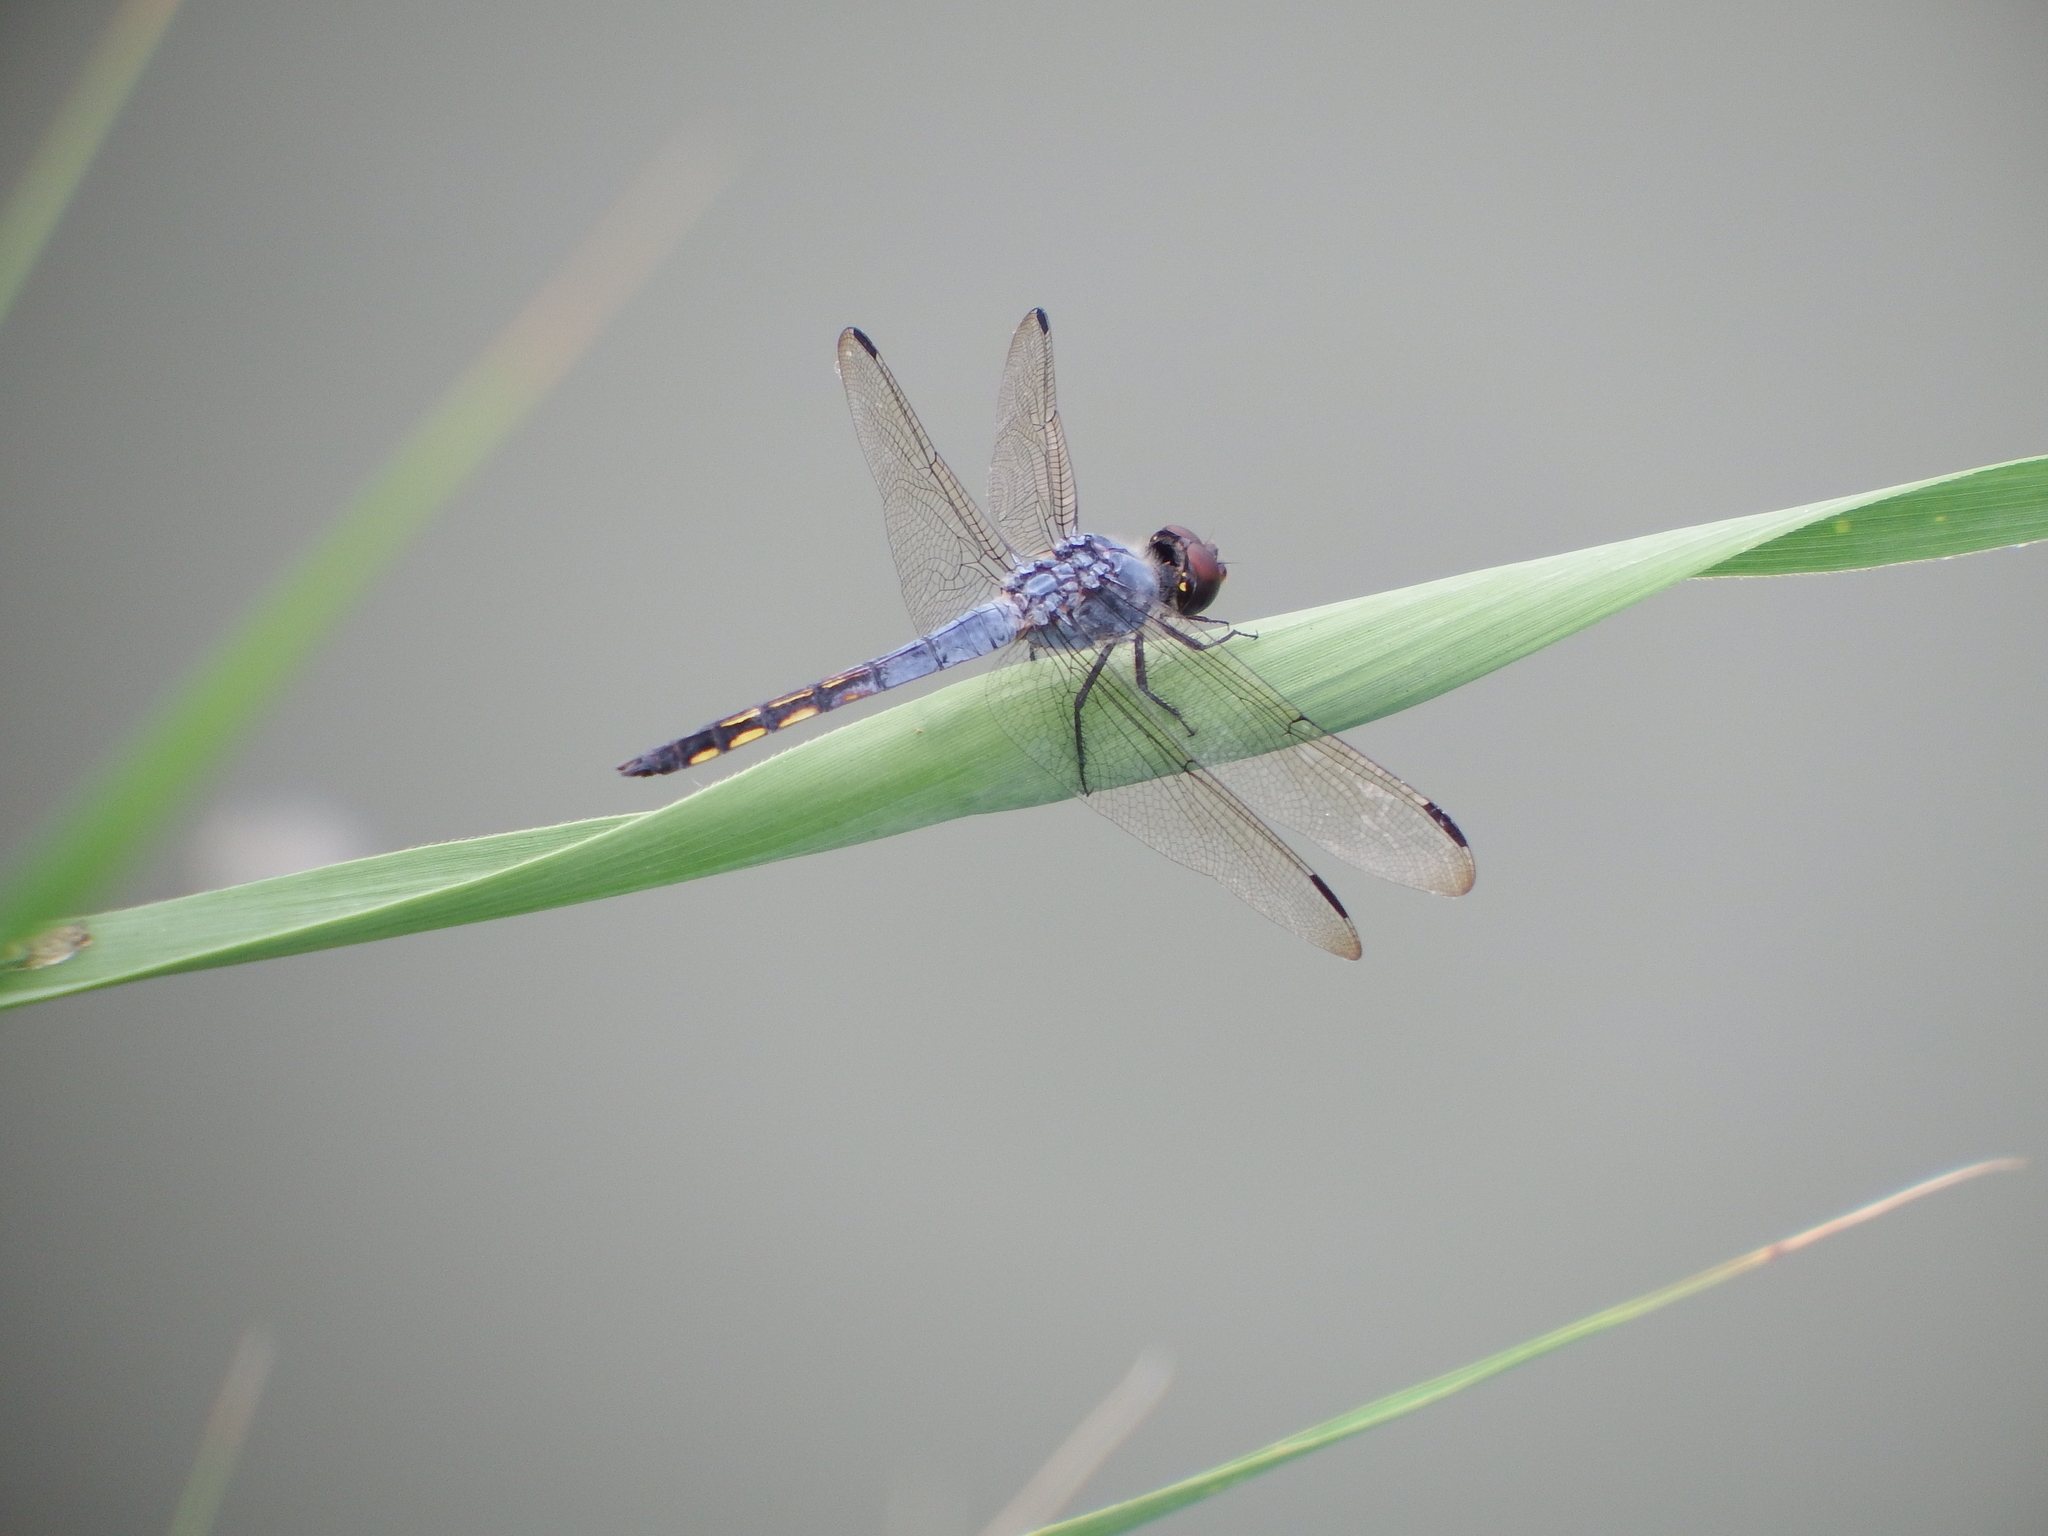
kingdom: Animalia
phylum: Arthropoda
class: Insecta
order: Odonata
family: Libellulidae
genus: Potamarcha
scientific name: Potamarcha congener
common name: Blue chaser
